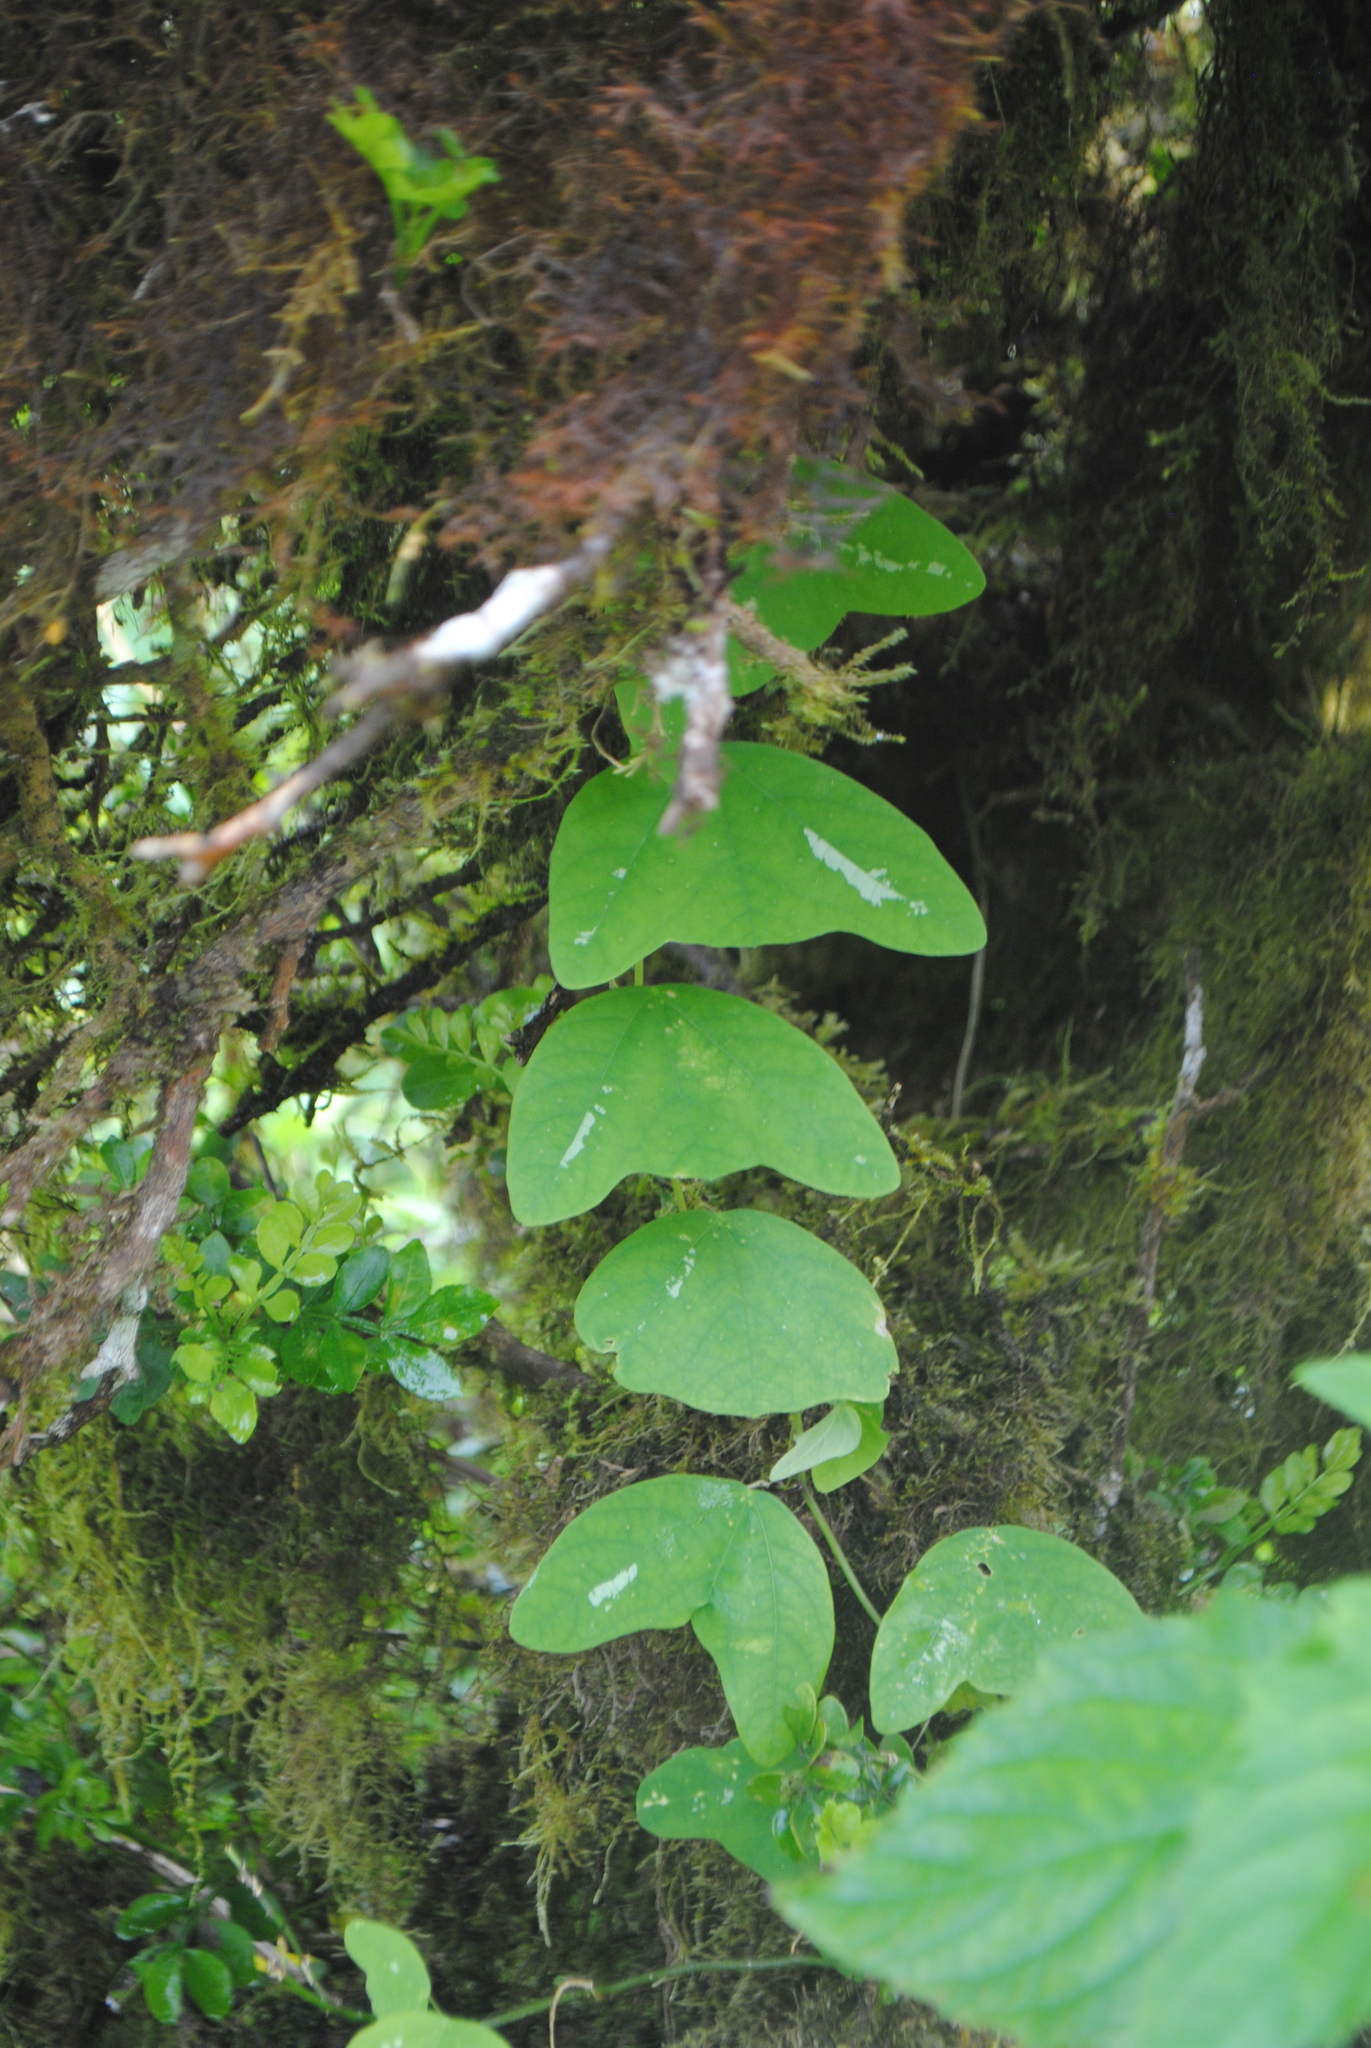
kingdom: Plantae
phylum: Tracheophyta
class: Magnoliopsida
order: Malpighiales
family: Passifloraceae
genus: Passiflora
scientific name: Passiflora colinvauxii
